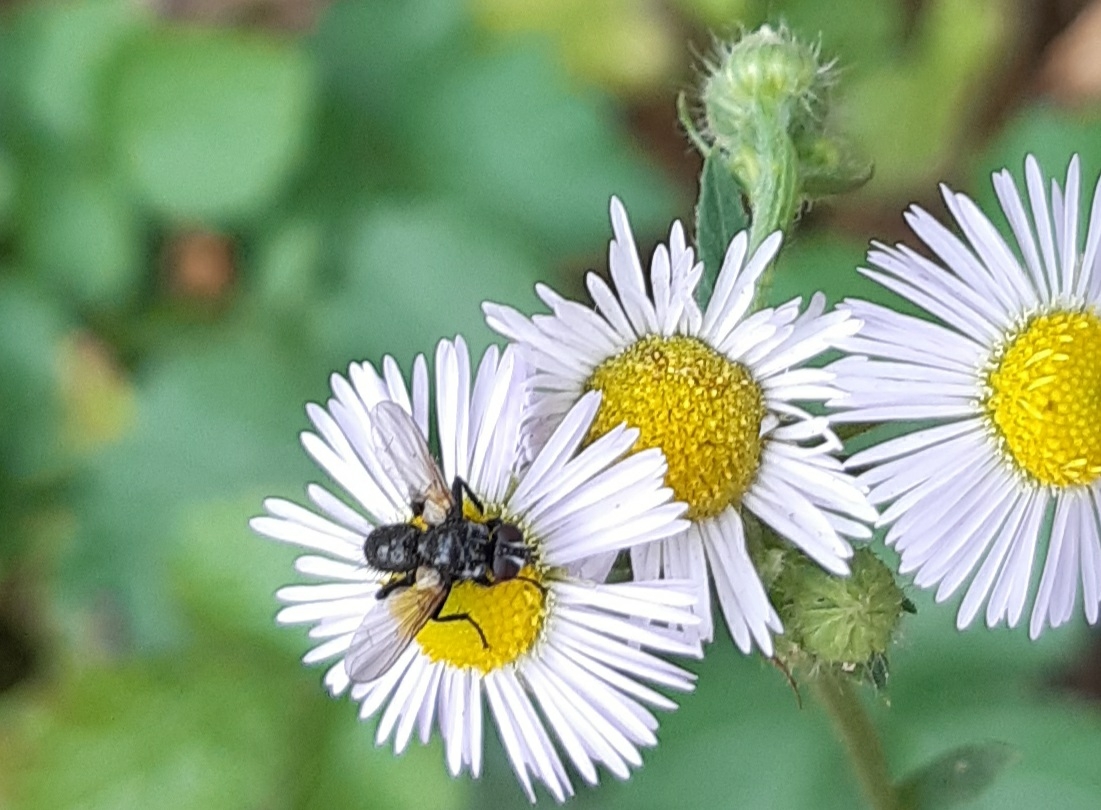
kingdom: Animalia
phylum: Arthropoda
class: Insecta
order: Diptera
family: Tachinidae
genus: Phania
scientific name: Phania funesta
